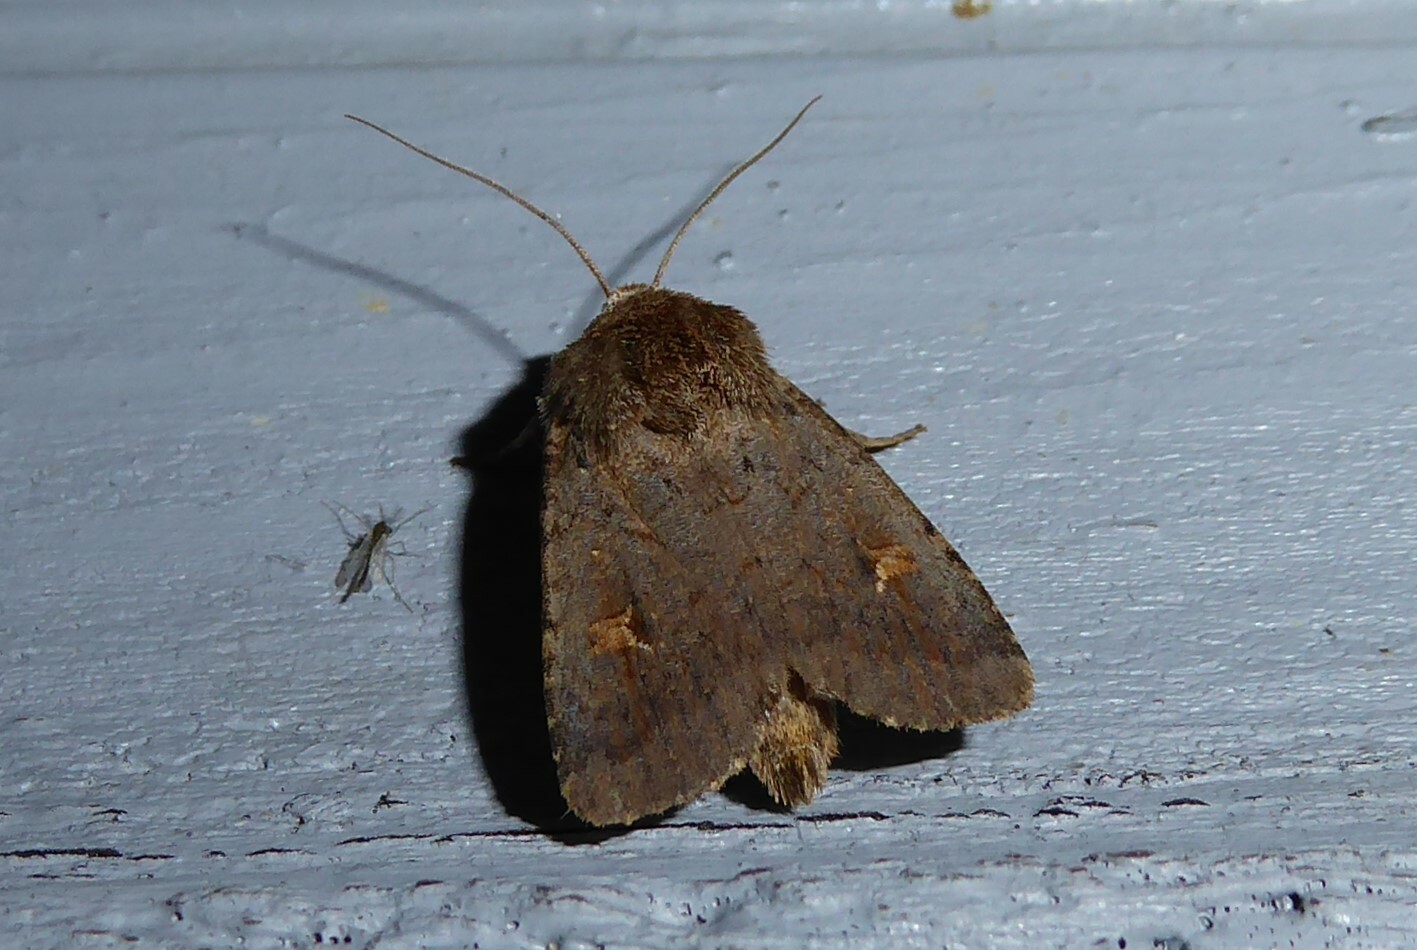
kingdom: Animalia
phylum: Arthropoda
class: Insecta
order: Lepidoptera
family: Noctuidae
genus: Proteuxoa
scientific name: Proteuxoa tetronycha
